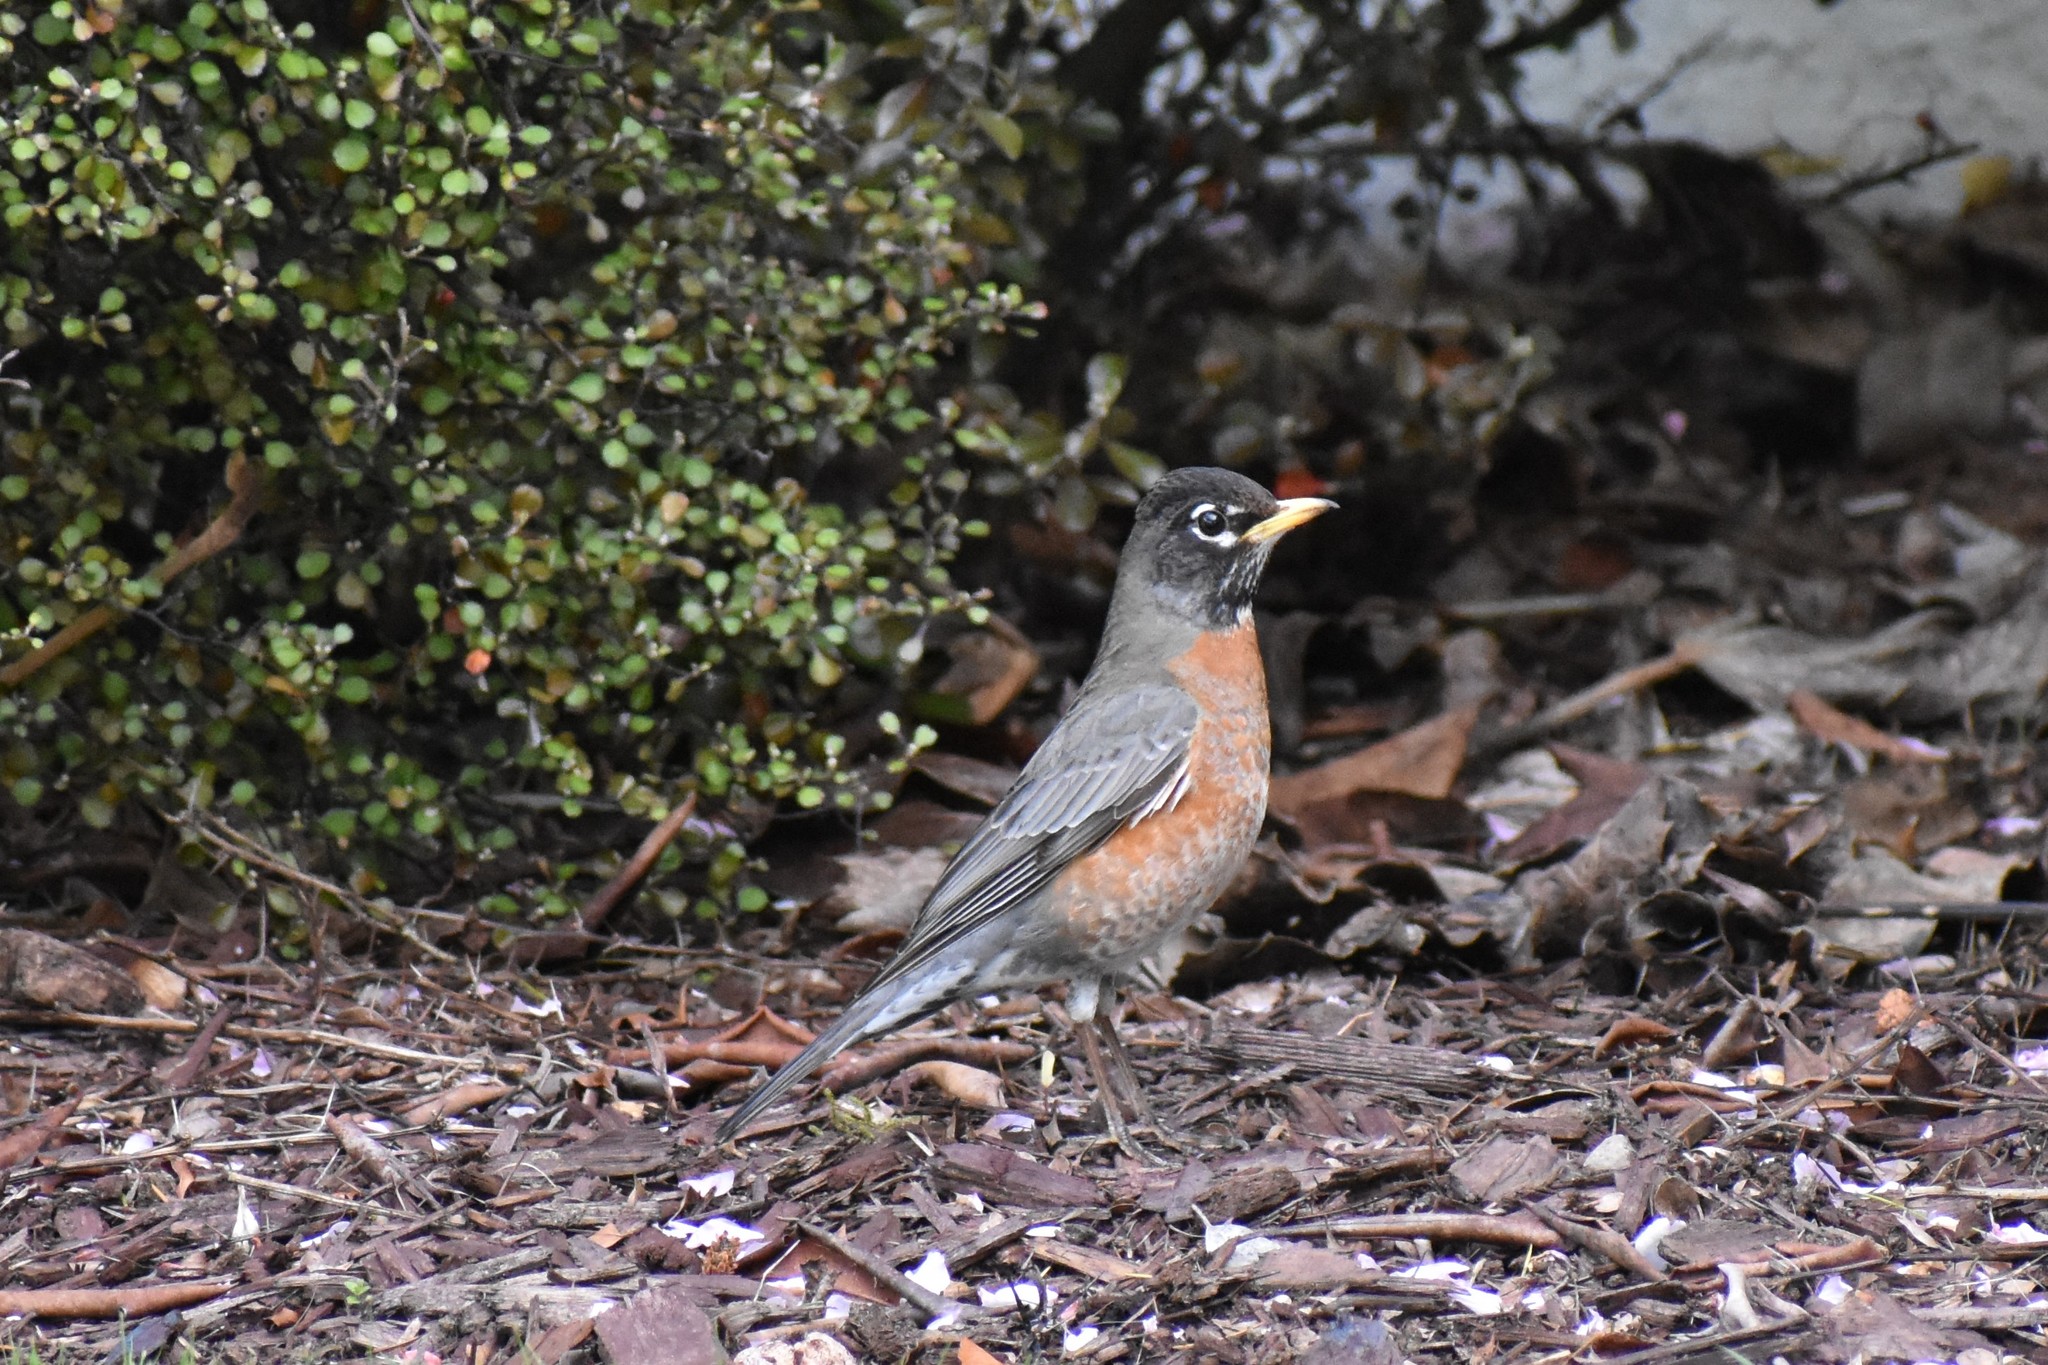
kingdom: Animalia
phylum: Chordata
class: Aves
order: Passeriformes
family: Turdidae
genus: Turdus
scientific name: Turdus migratorius
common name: American robin
